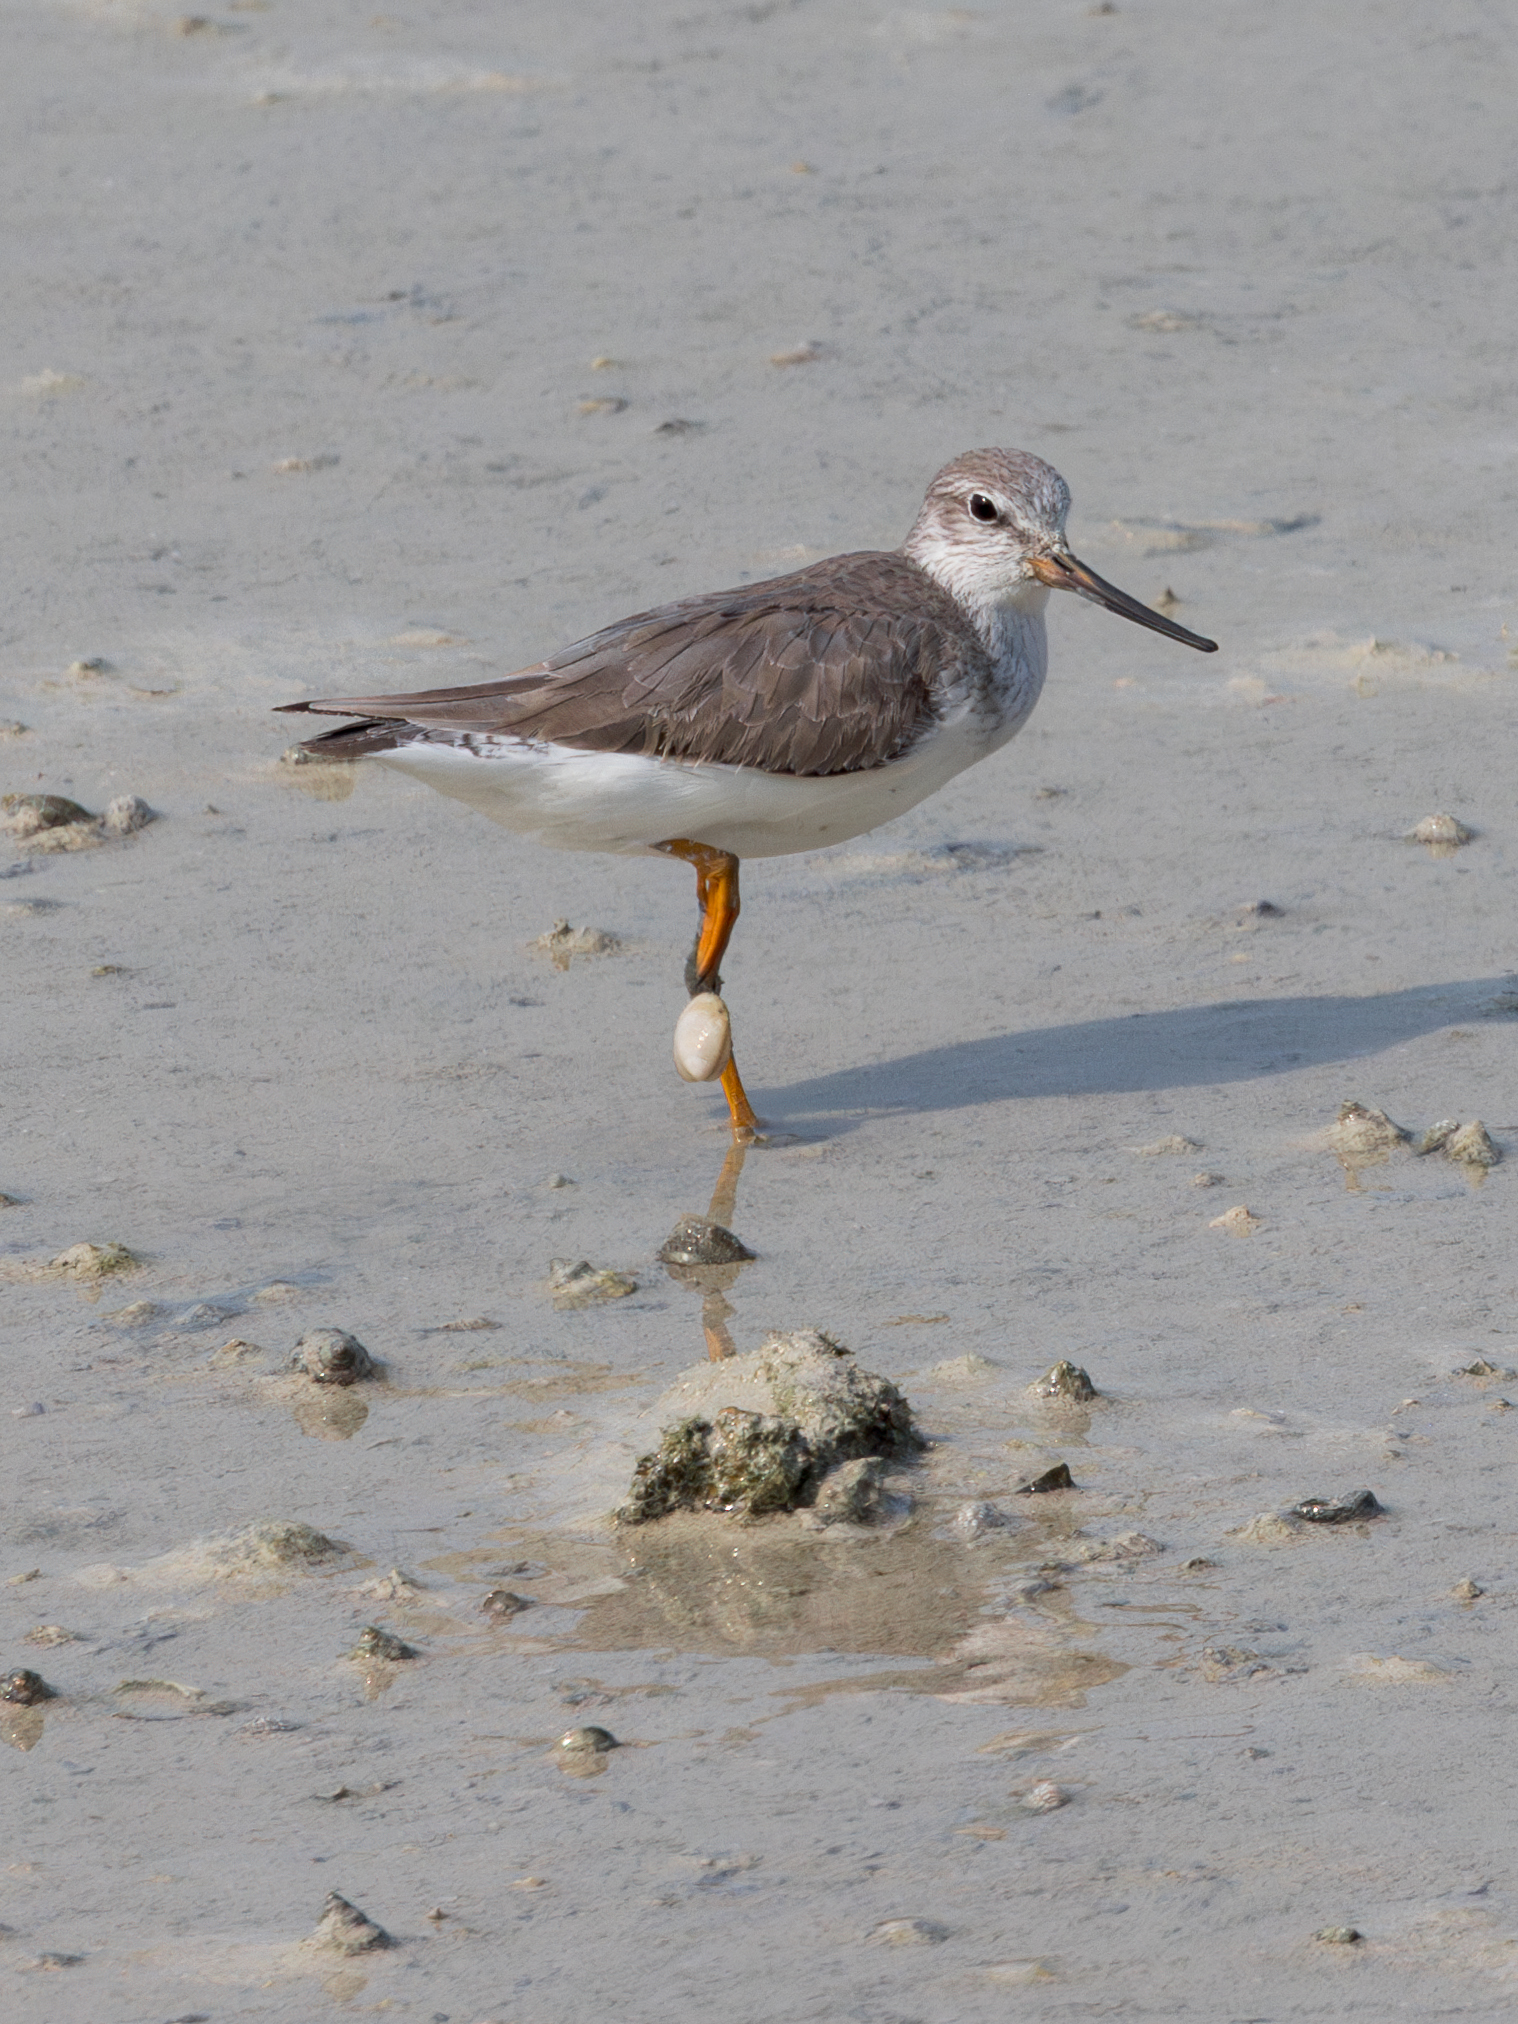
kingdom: Animalia
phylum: Chordata
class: Aves
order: Charadriiformes
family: Scolopacidae
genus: Xenus
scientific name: Xenus cinereus
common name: Terek sandpiper
